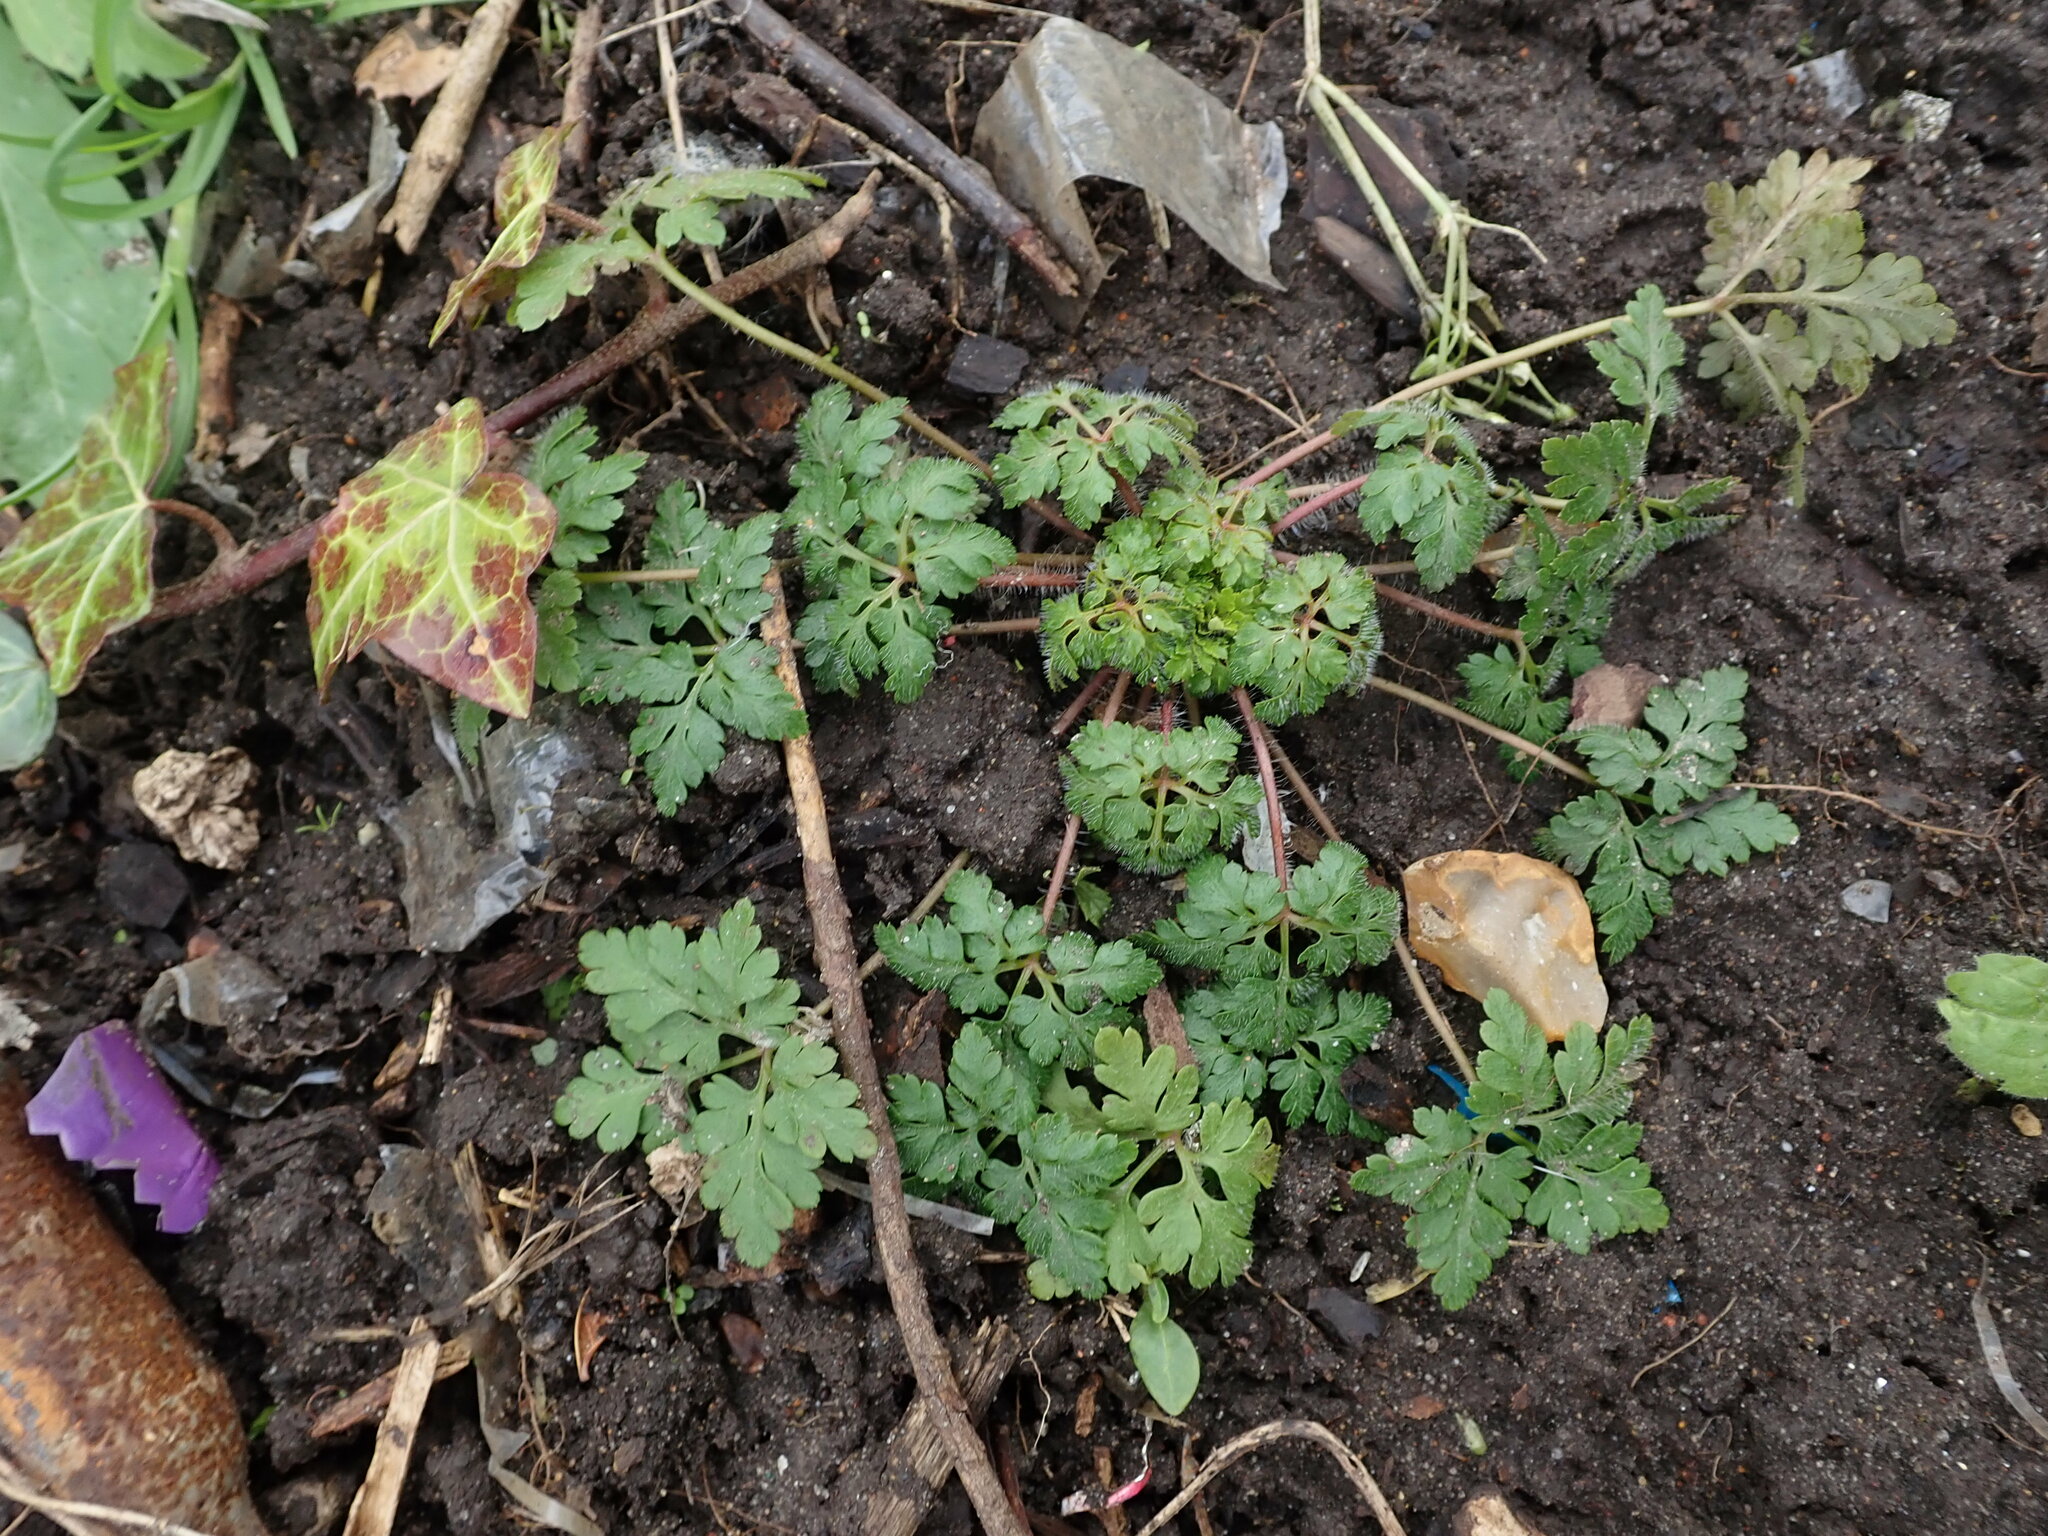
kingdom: Plantae
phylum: Tracheophyta
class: Magnoliopsida
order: Geraniales
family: Geraniaceae
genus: Geranium
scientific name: Geranium robertianum
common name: Herb-robert
